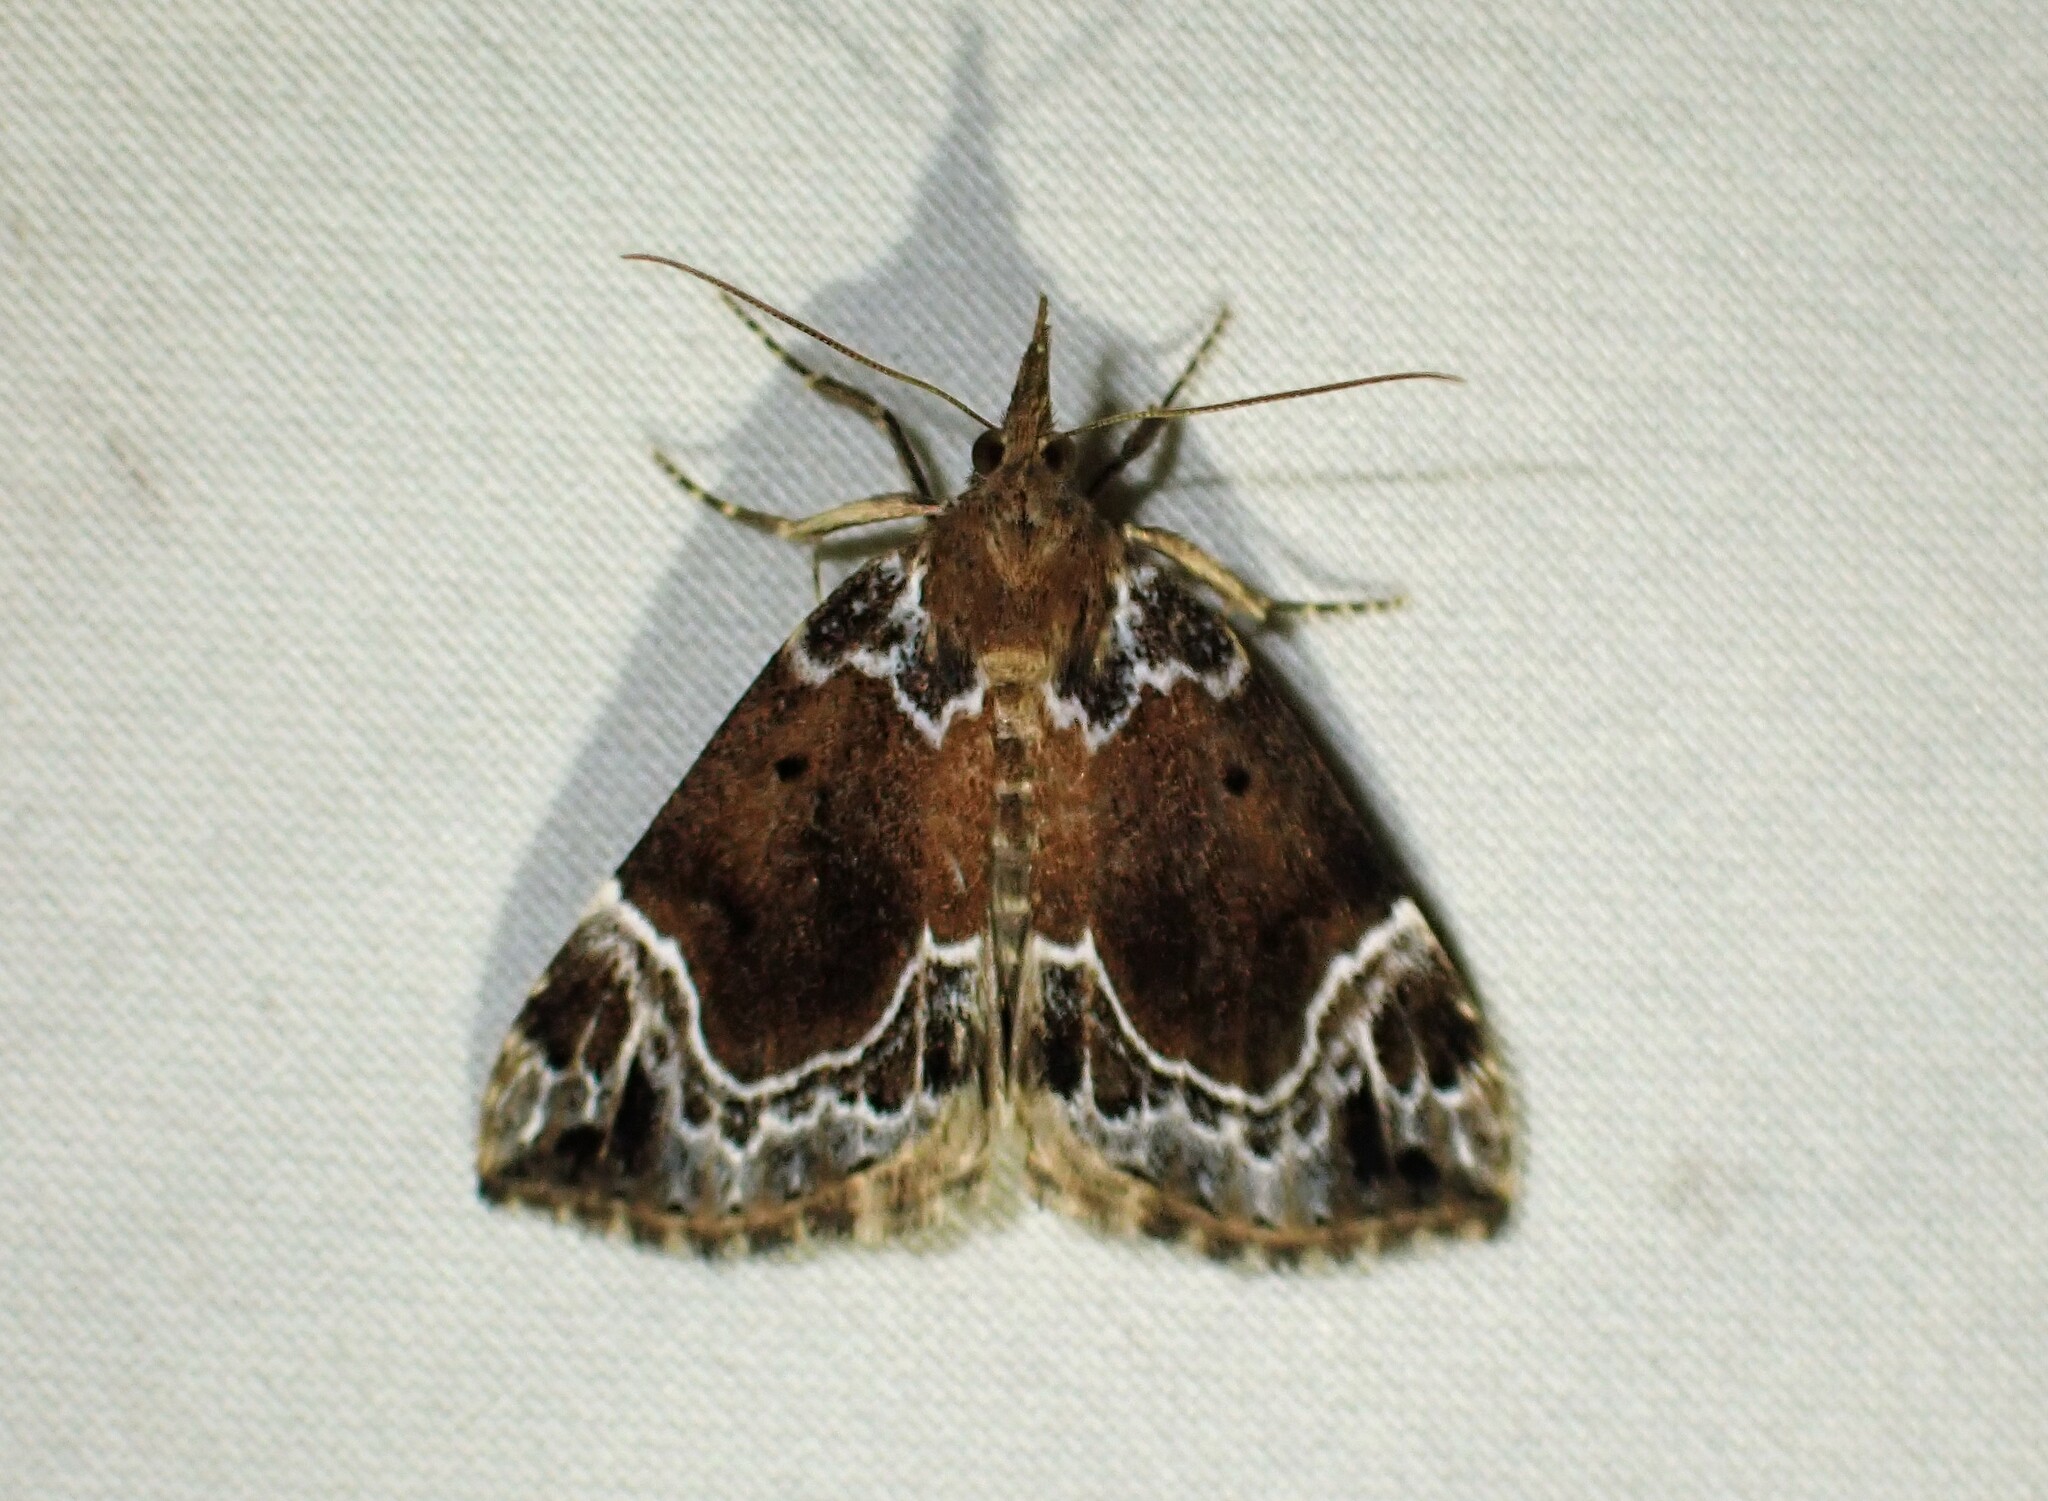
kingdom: Animalia
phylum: Arthropoda
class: Insecta
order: Lepidoptera
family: Erebidae
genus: Hypena
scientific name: Hypena abalienalis
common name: White-lined snout
